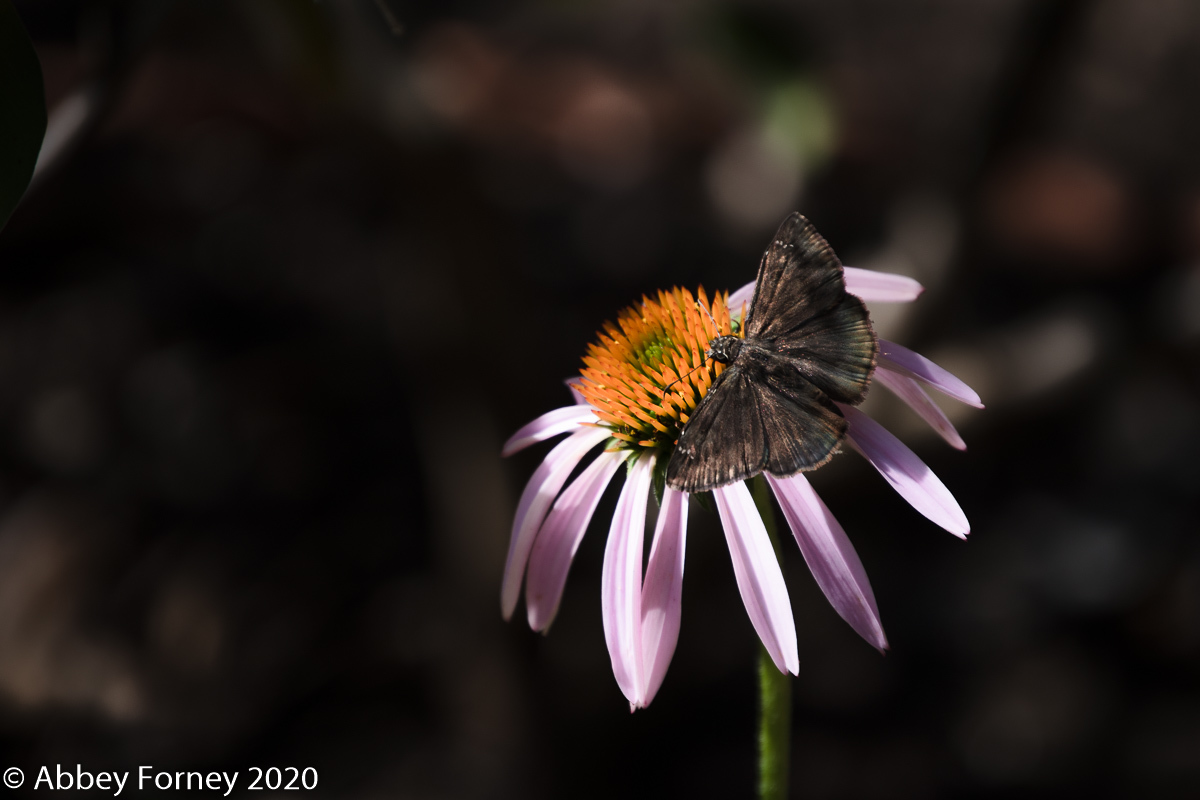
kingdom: Animalia
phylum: Arthropoda
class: Insecta
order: Lepidoptera
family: Hesperiidae
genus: Erynnis
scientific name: Erynnis horatius
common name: Horace's duskywing
